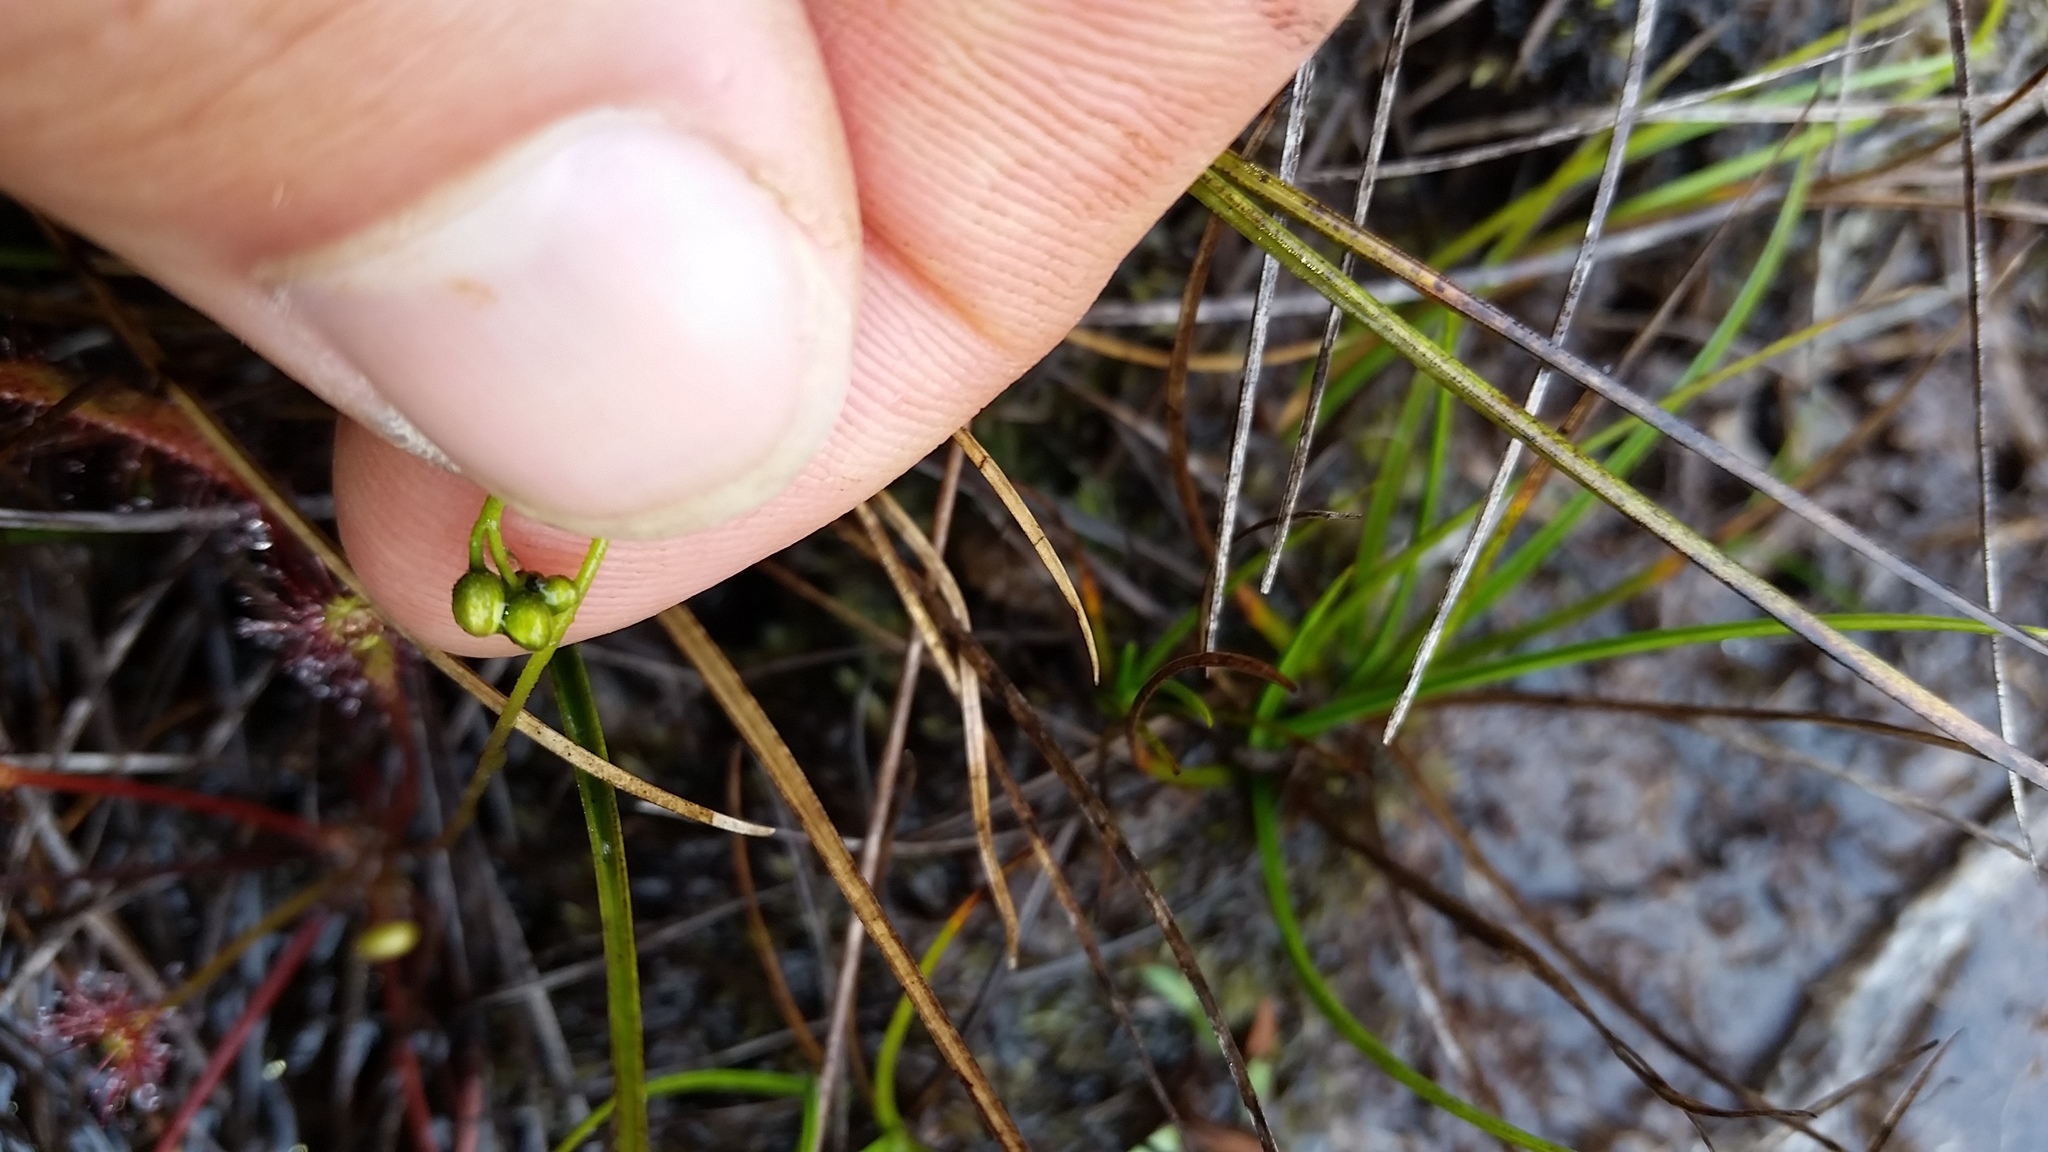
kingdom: Plantae
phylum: Tracheophyta
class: Magnoliopsida
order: Caryophyllales
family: Droseraceae
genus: Drosera
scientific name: Drosera anglica
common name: Great sundew
